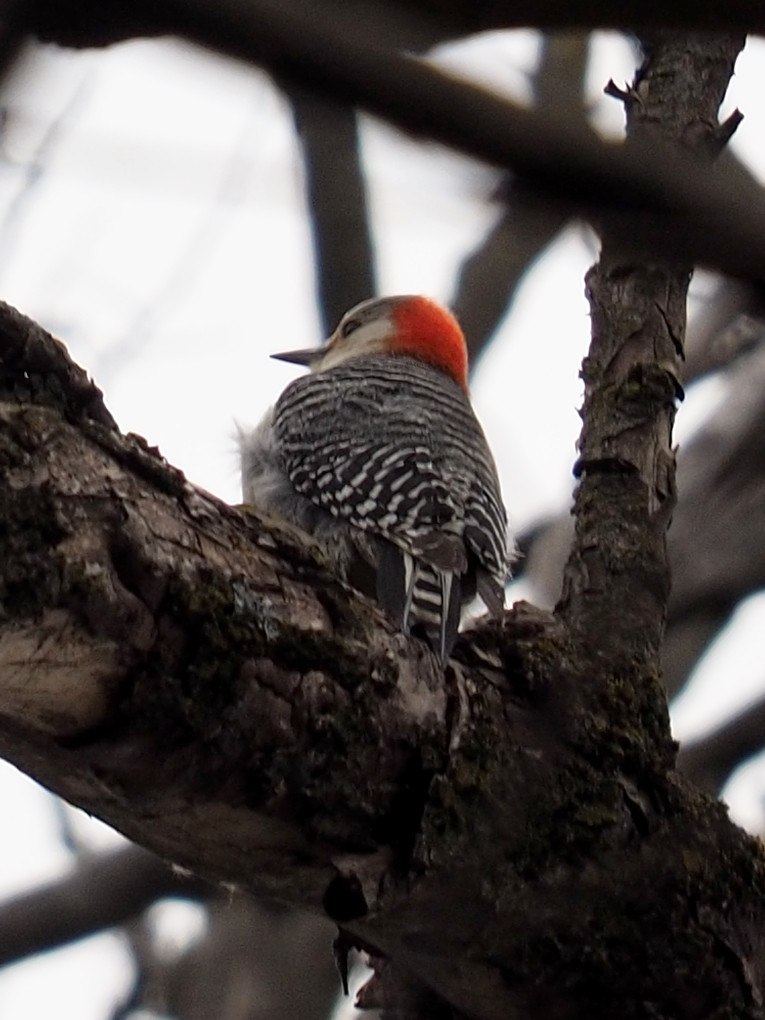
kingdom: Animalia
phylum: Chordata
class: Aves
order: Piciformes
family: Picidae
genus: Melanerpes
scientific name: Melanerpes carolinus
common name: Red-bellied woodpecker
